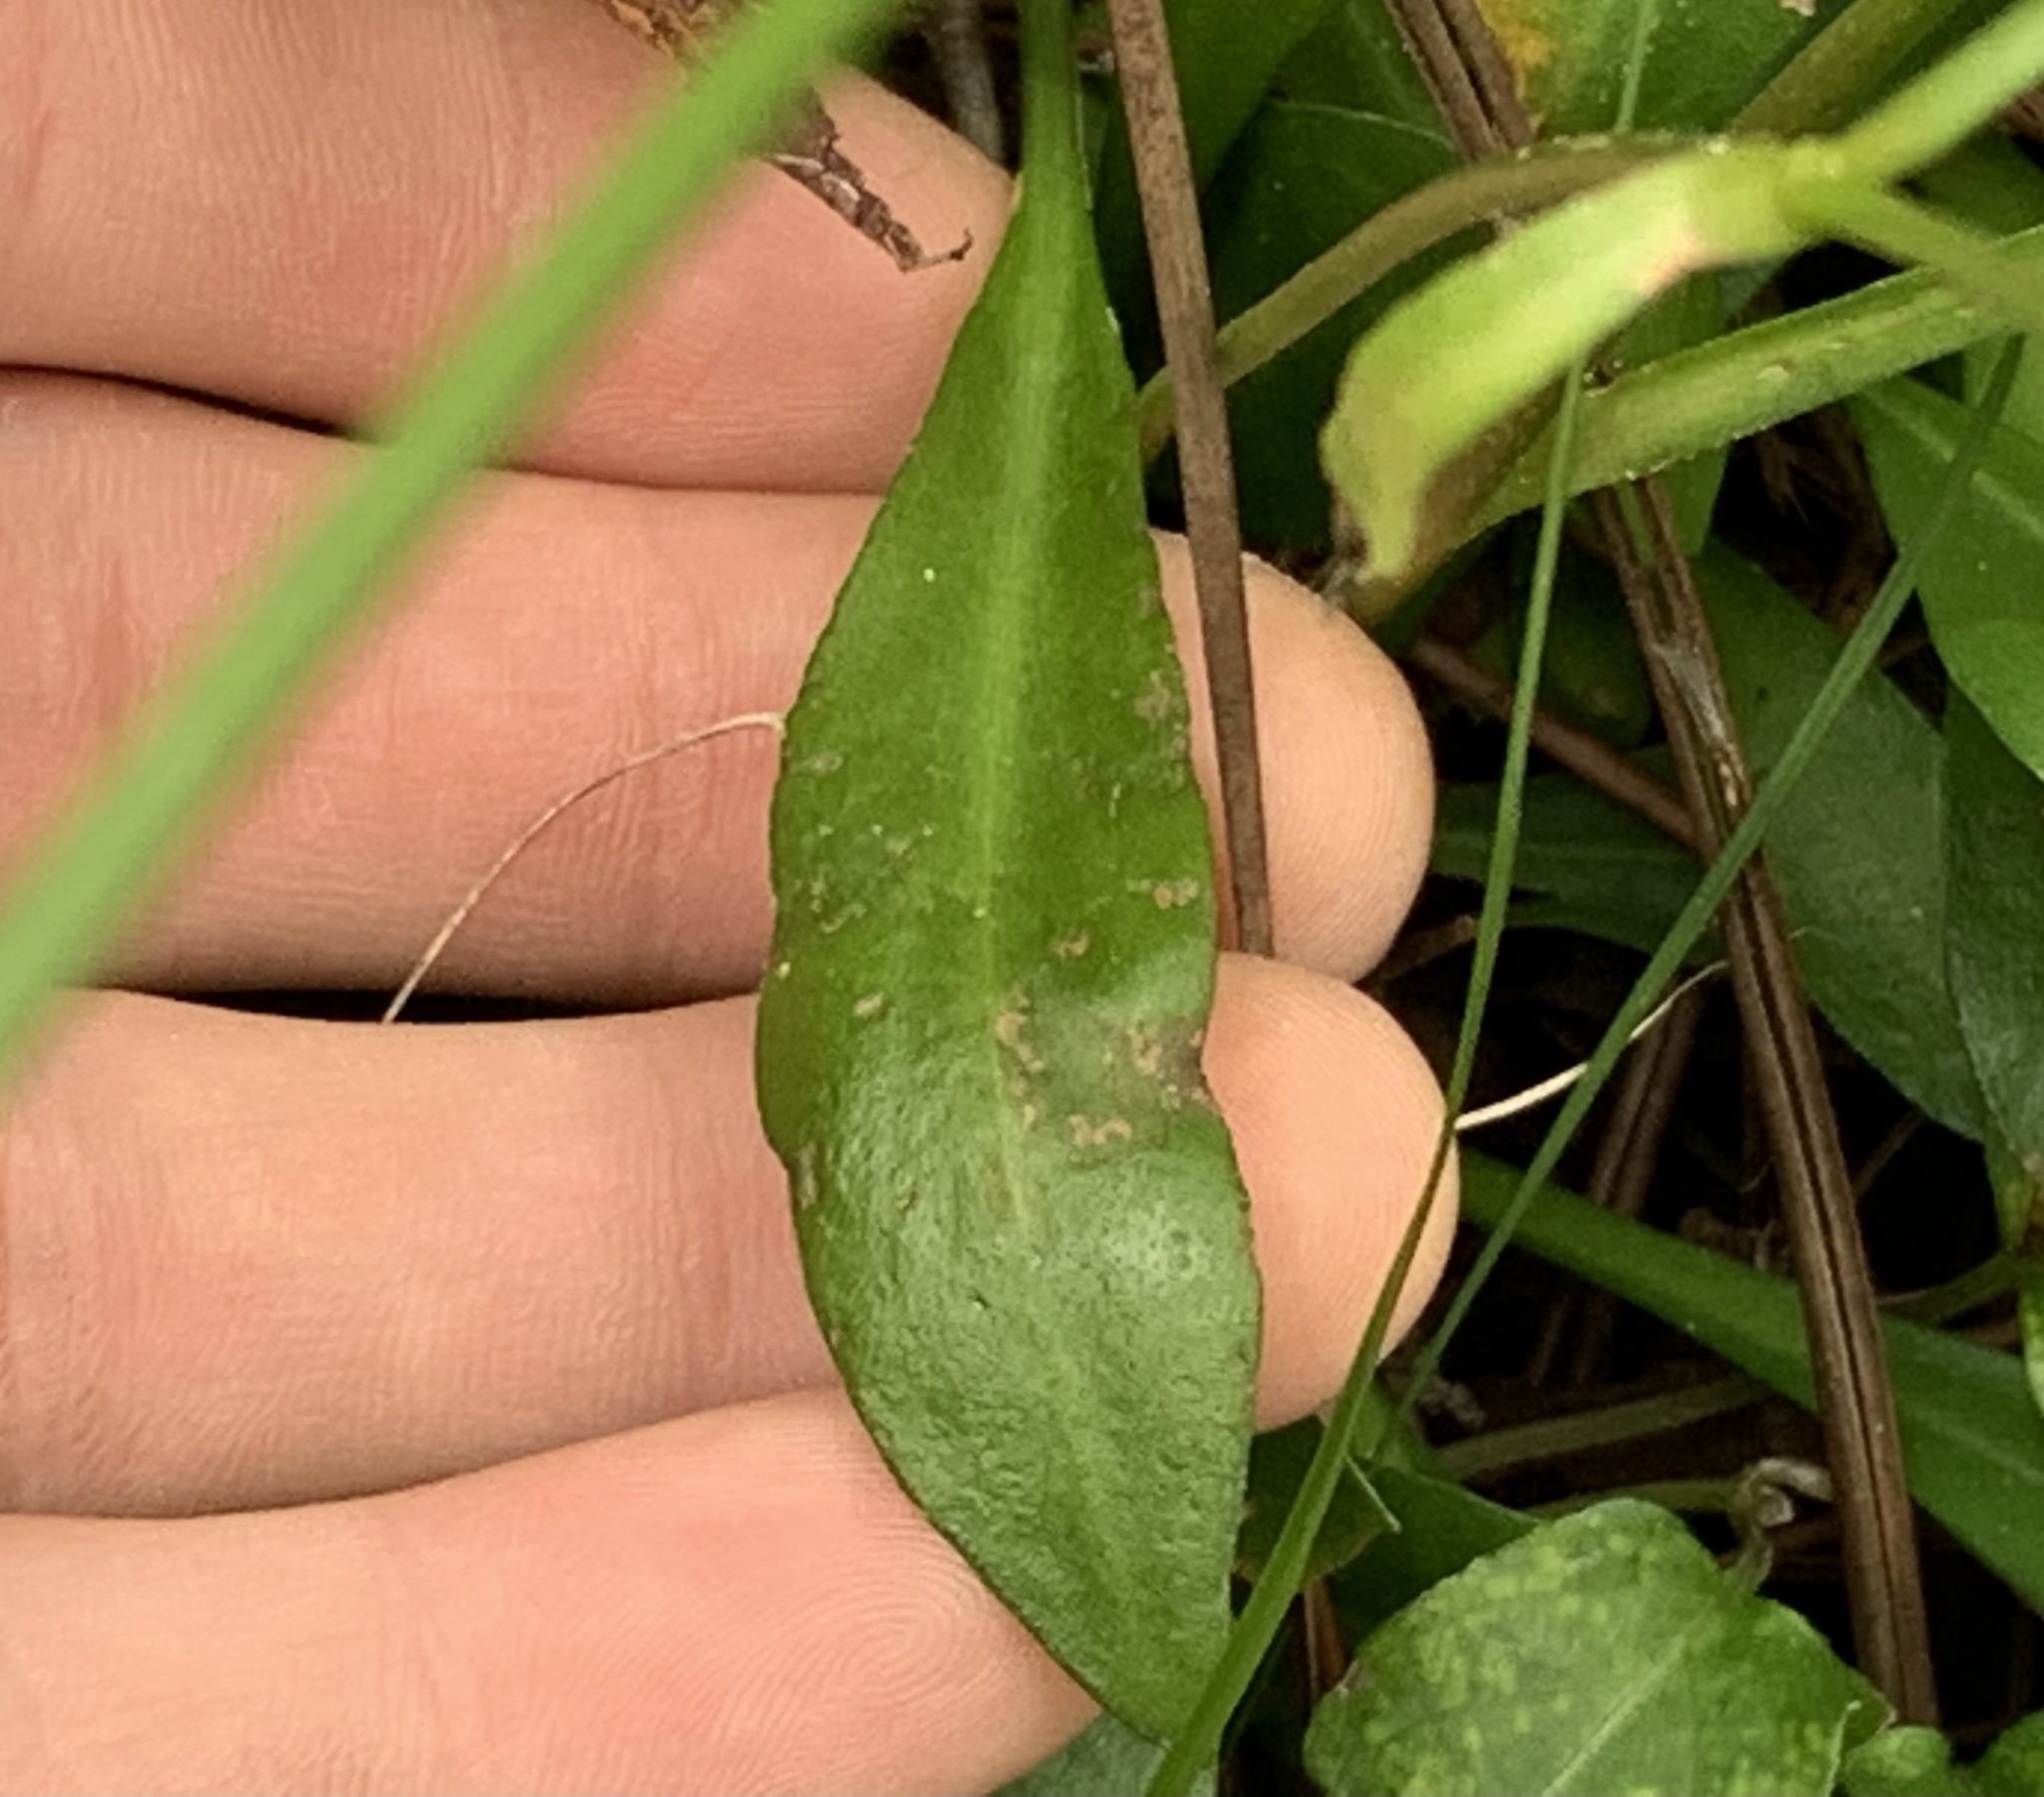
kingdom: Plantae
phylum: Tracheophyta
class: Magnoliopsida
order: Asterales
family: Asteraceae
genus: Erigeron
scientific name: Erigeron vernus
